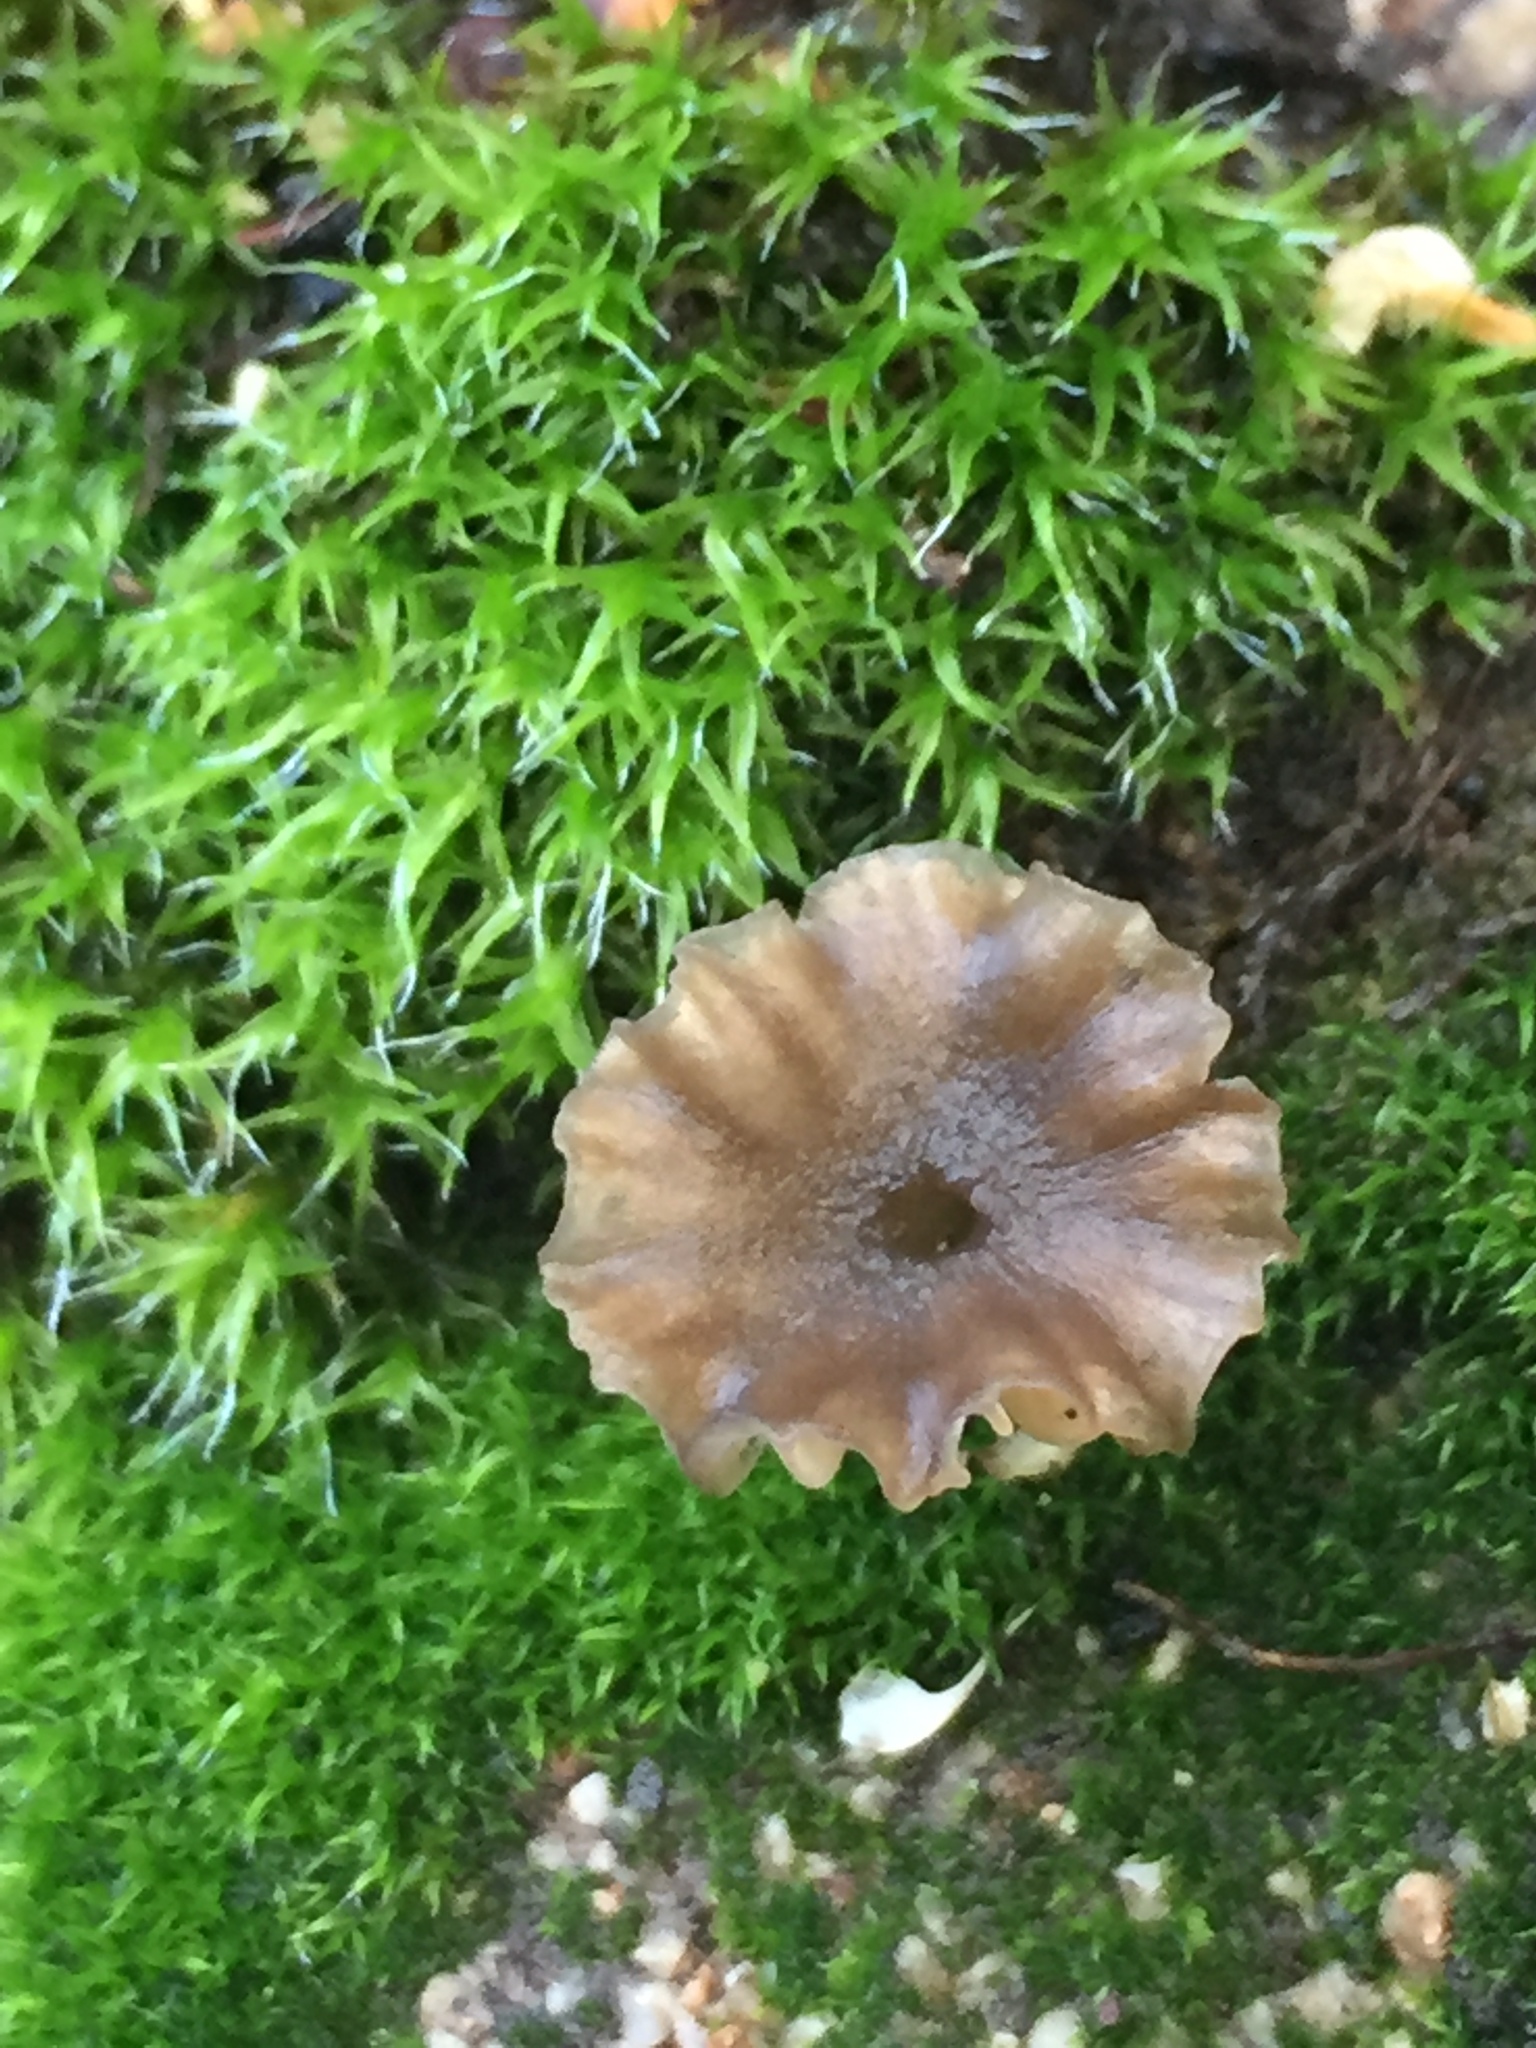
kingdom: Fungi
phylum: Basidiomycota
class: Agaricomycetes
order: Hymenochaetales
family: Rickenellaceae
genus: Contumyces
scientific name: Contumyces rosellus
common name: Rosy navel
